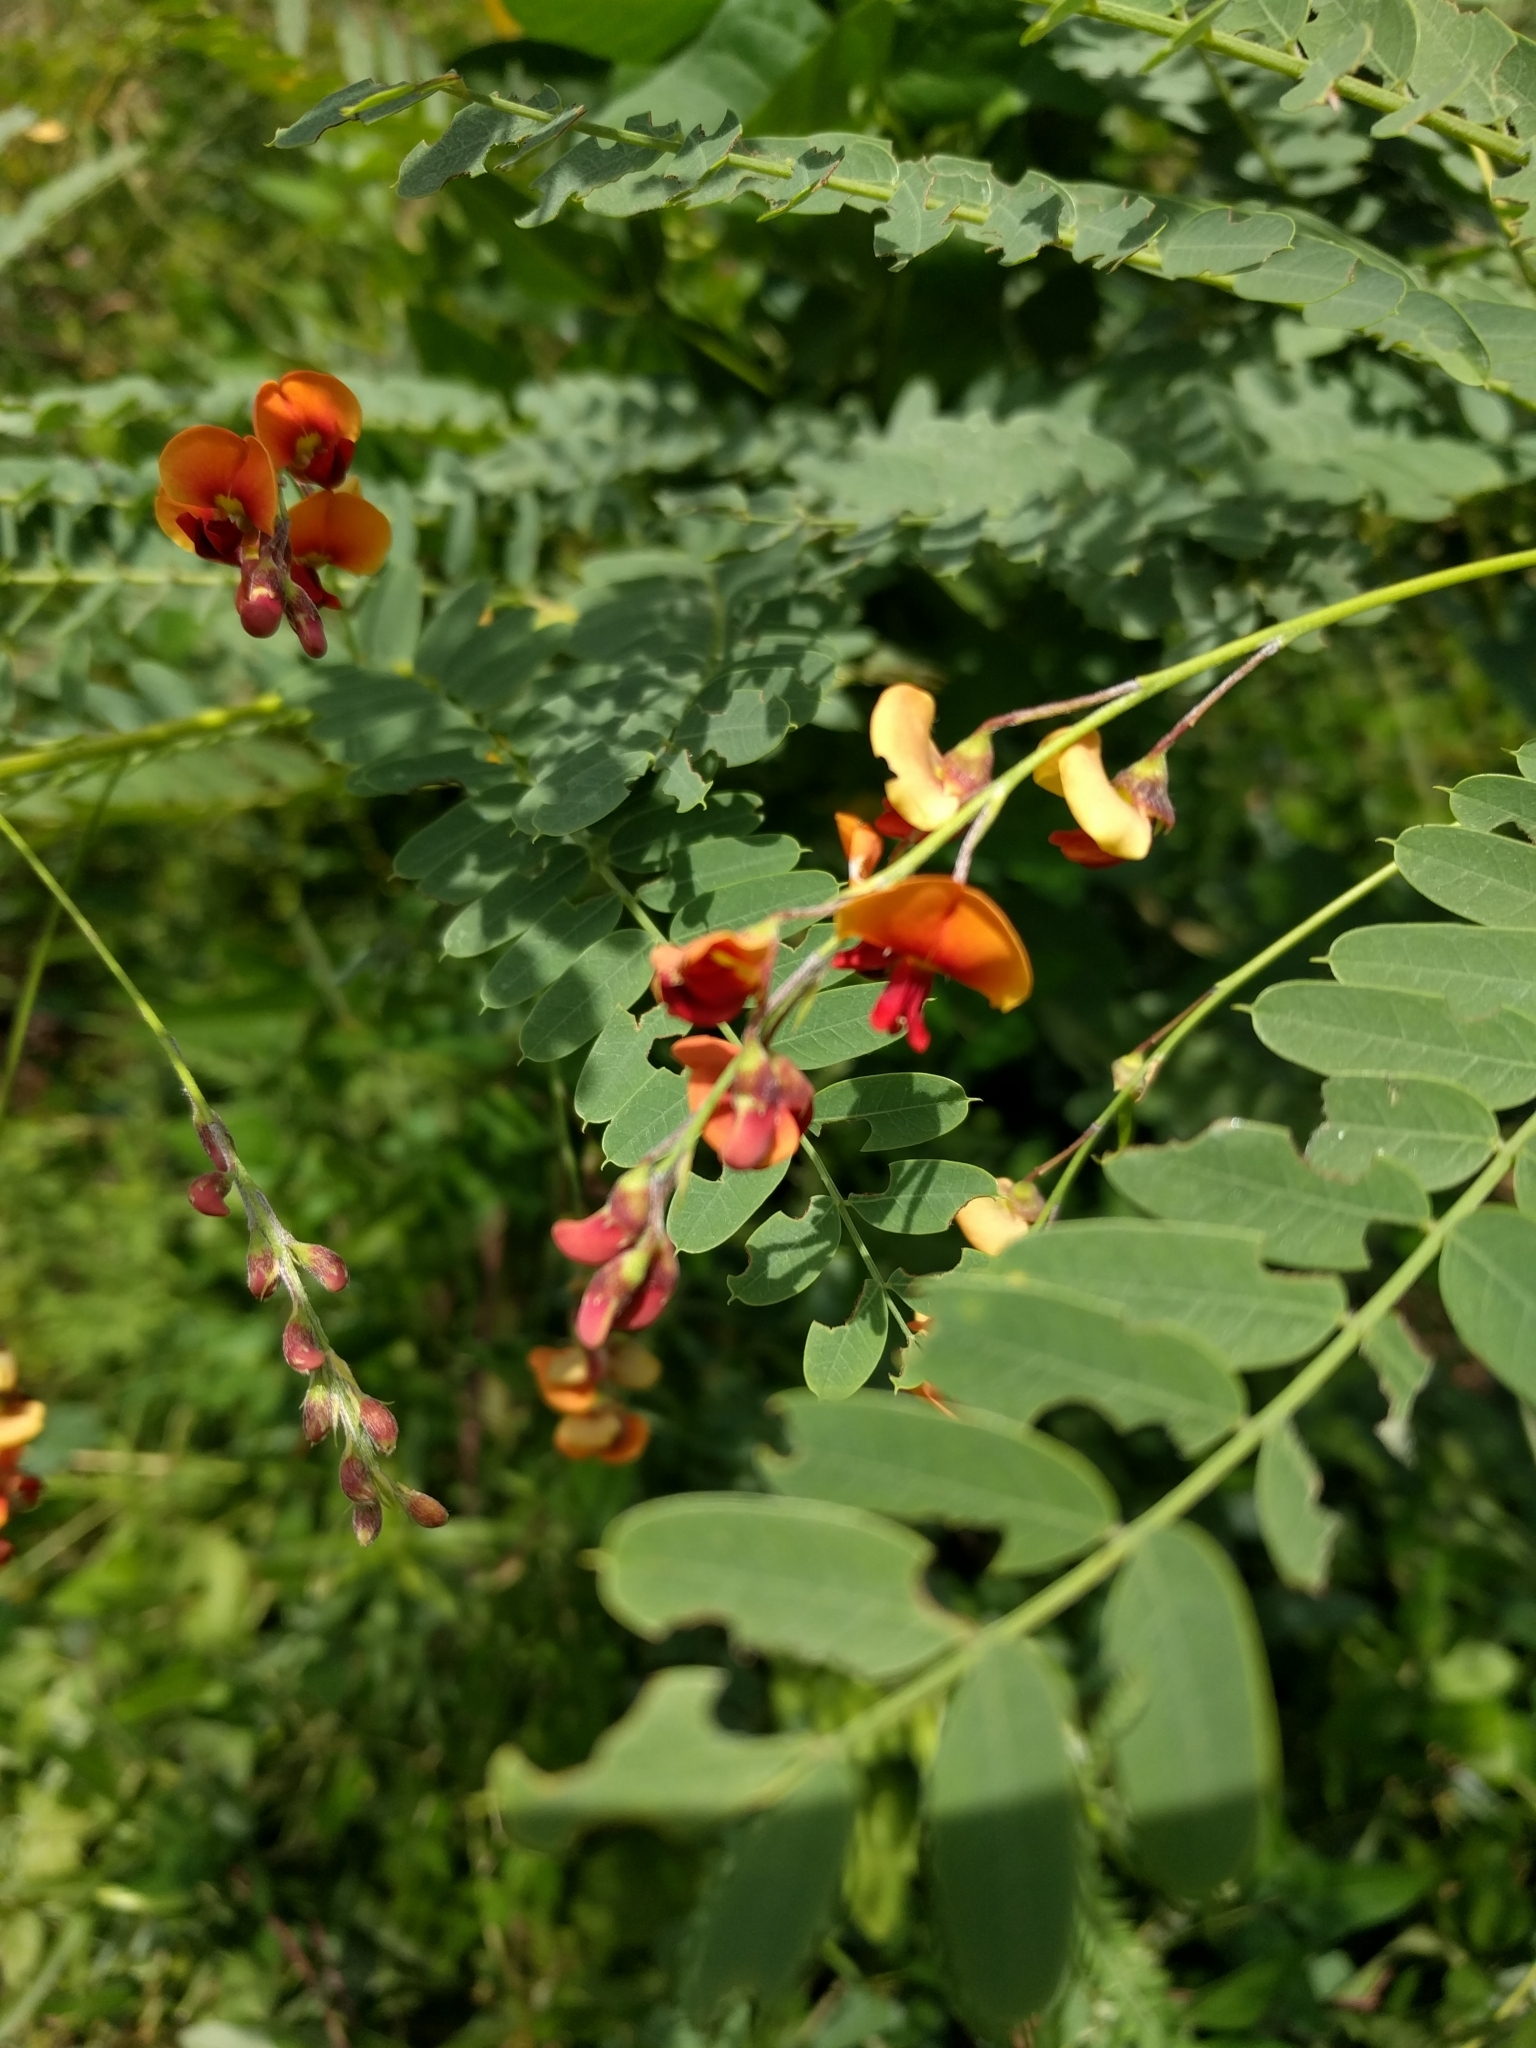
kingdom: Plantae
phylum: Tracheophyta
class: Magnoliopsida
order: Fabales
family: Fabaceae
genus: Sesbania
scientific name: Sesbania vesicaria
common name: Bagpod
